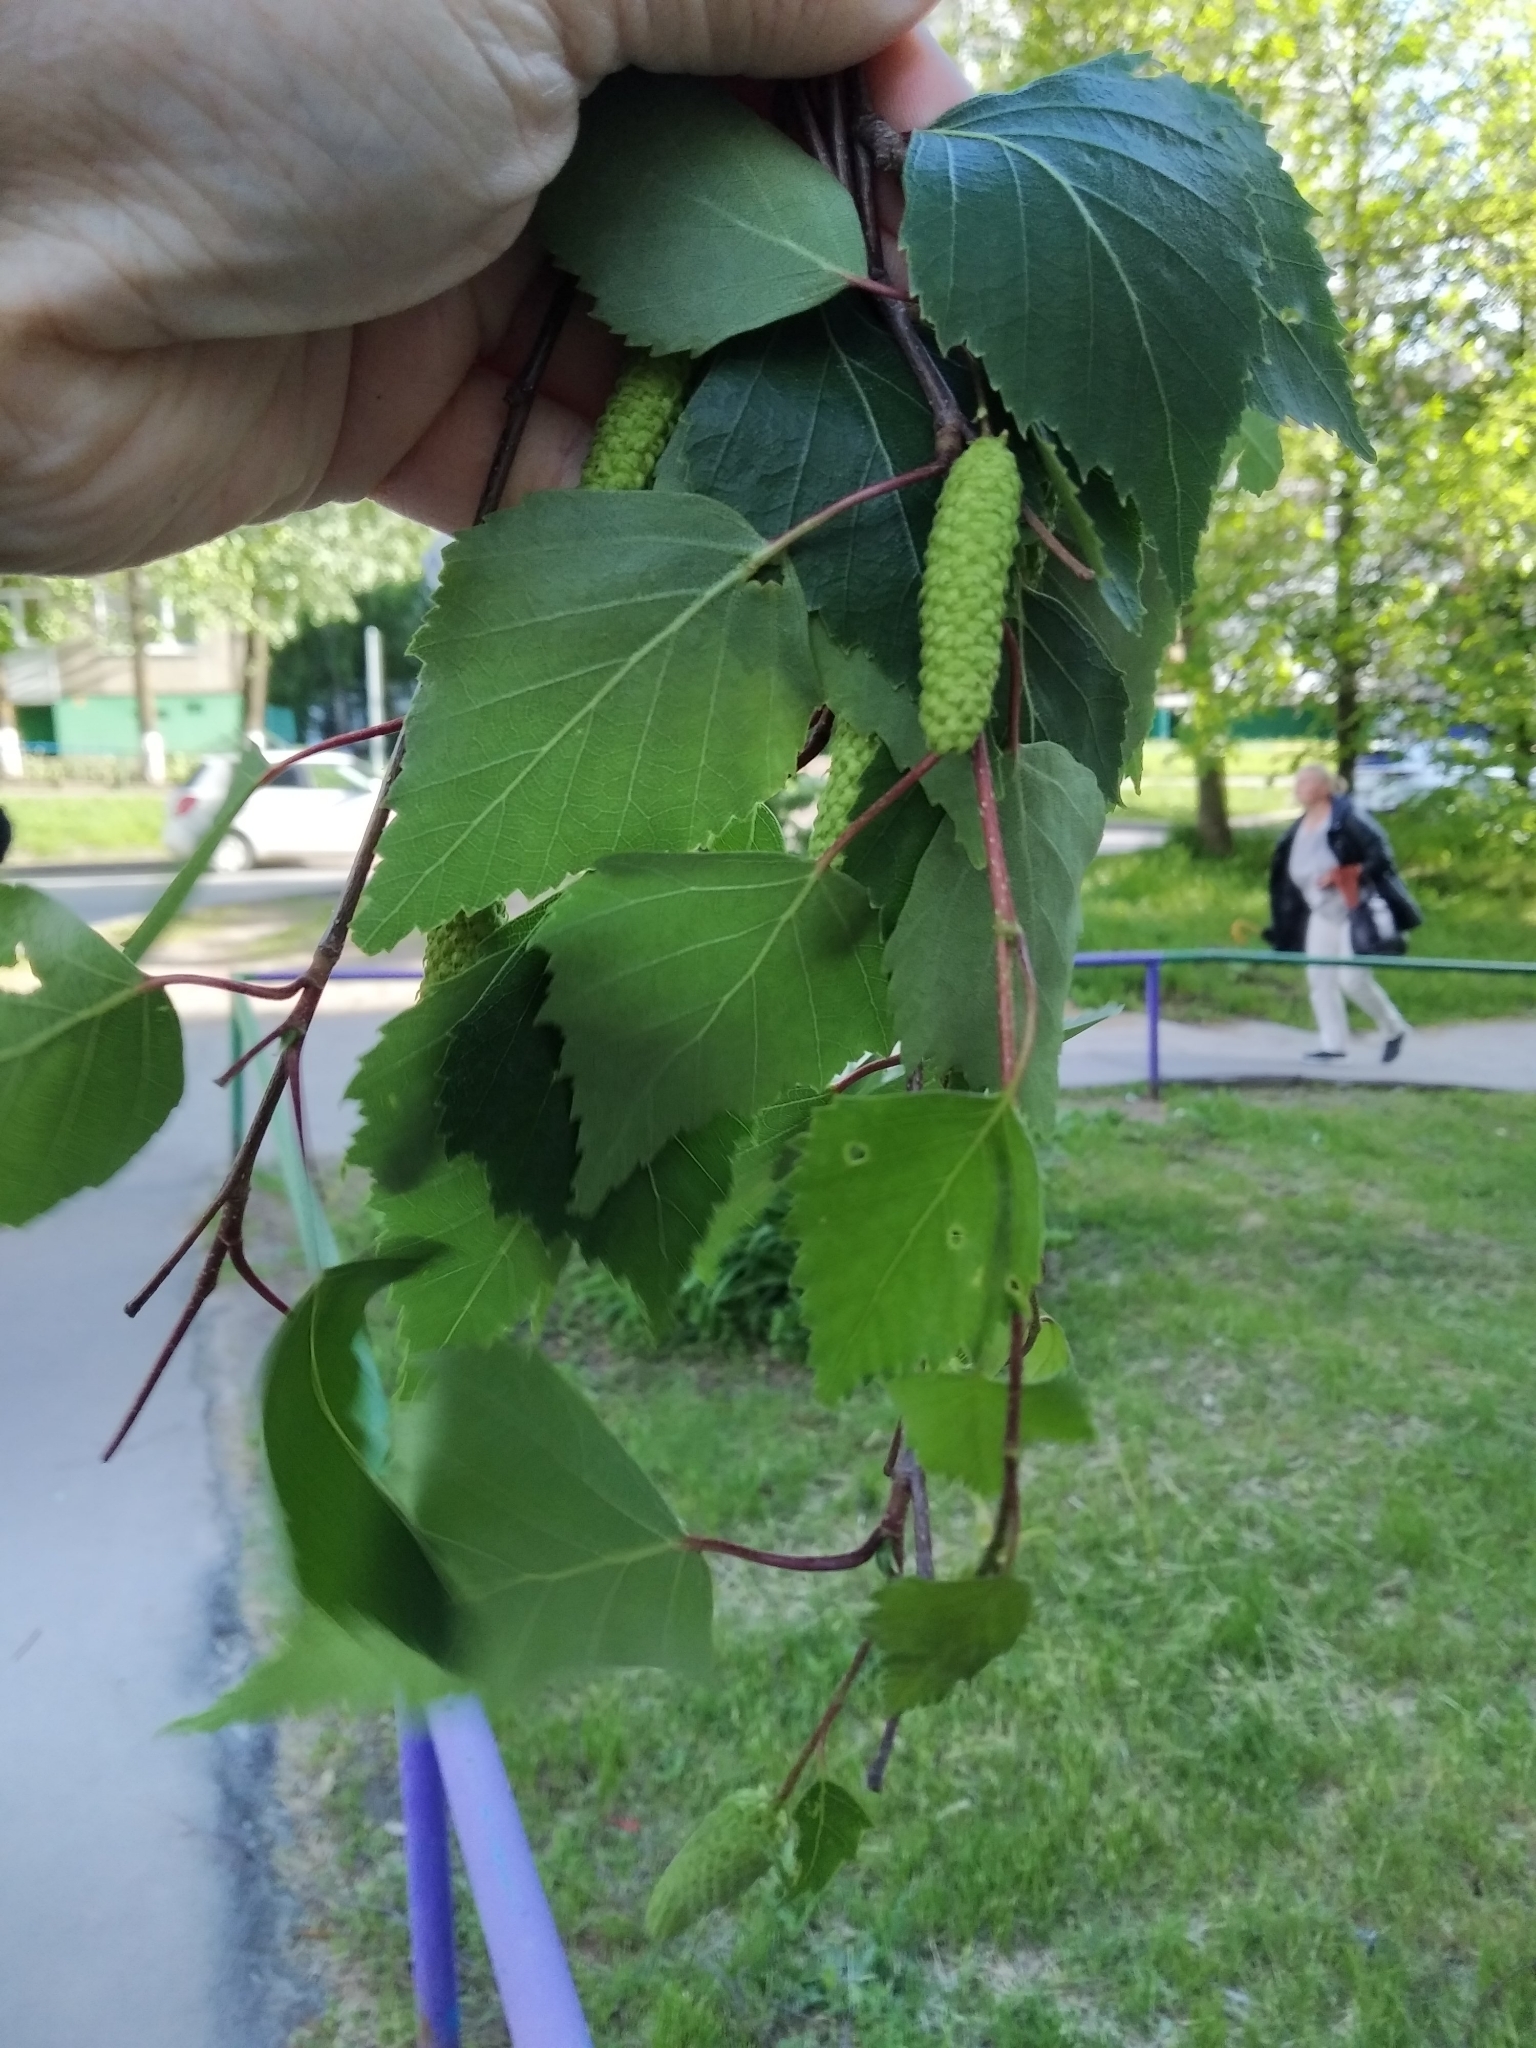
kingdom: Plantae
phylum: Tracheophyta
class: Magnoliopsida
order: Fagales
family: Betulaceae
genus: Betula
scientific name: Betula pendula
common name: Silver birch
